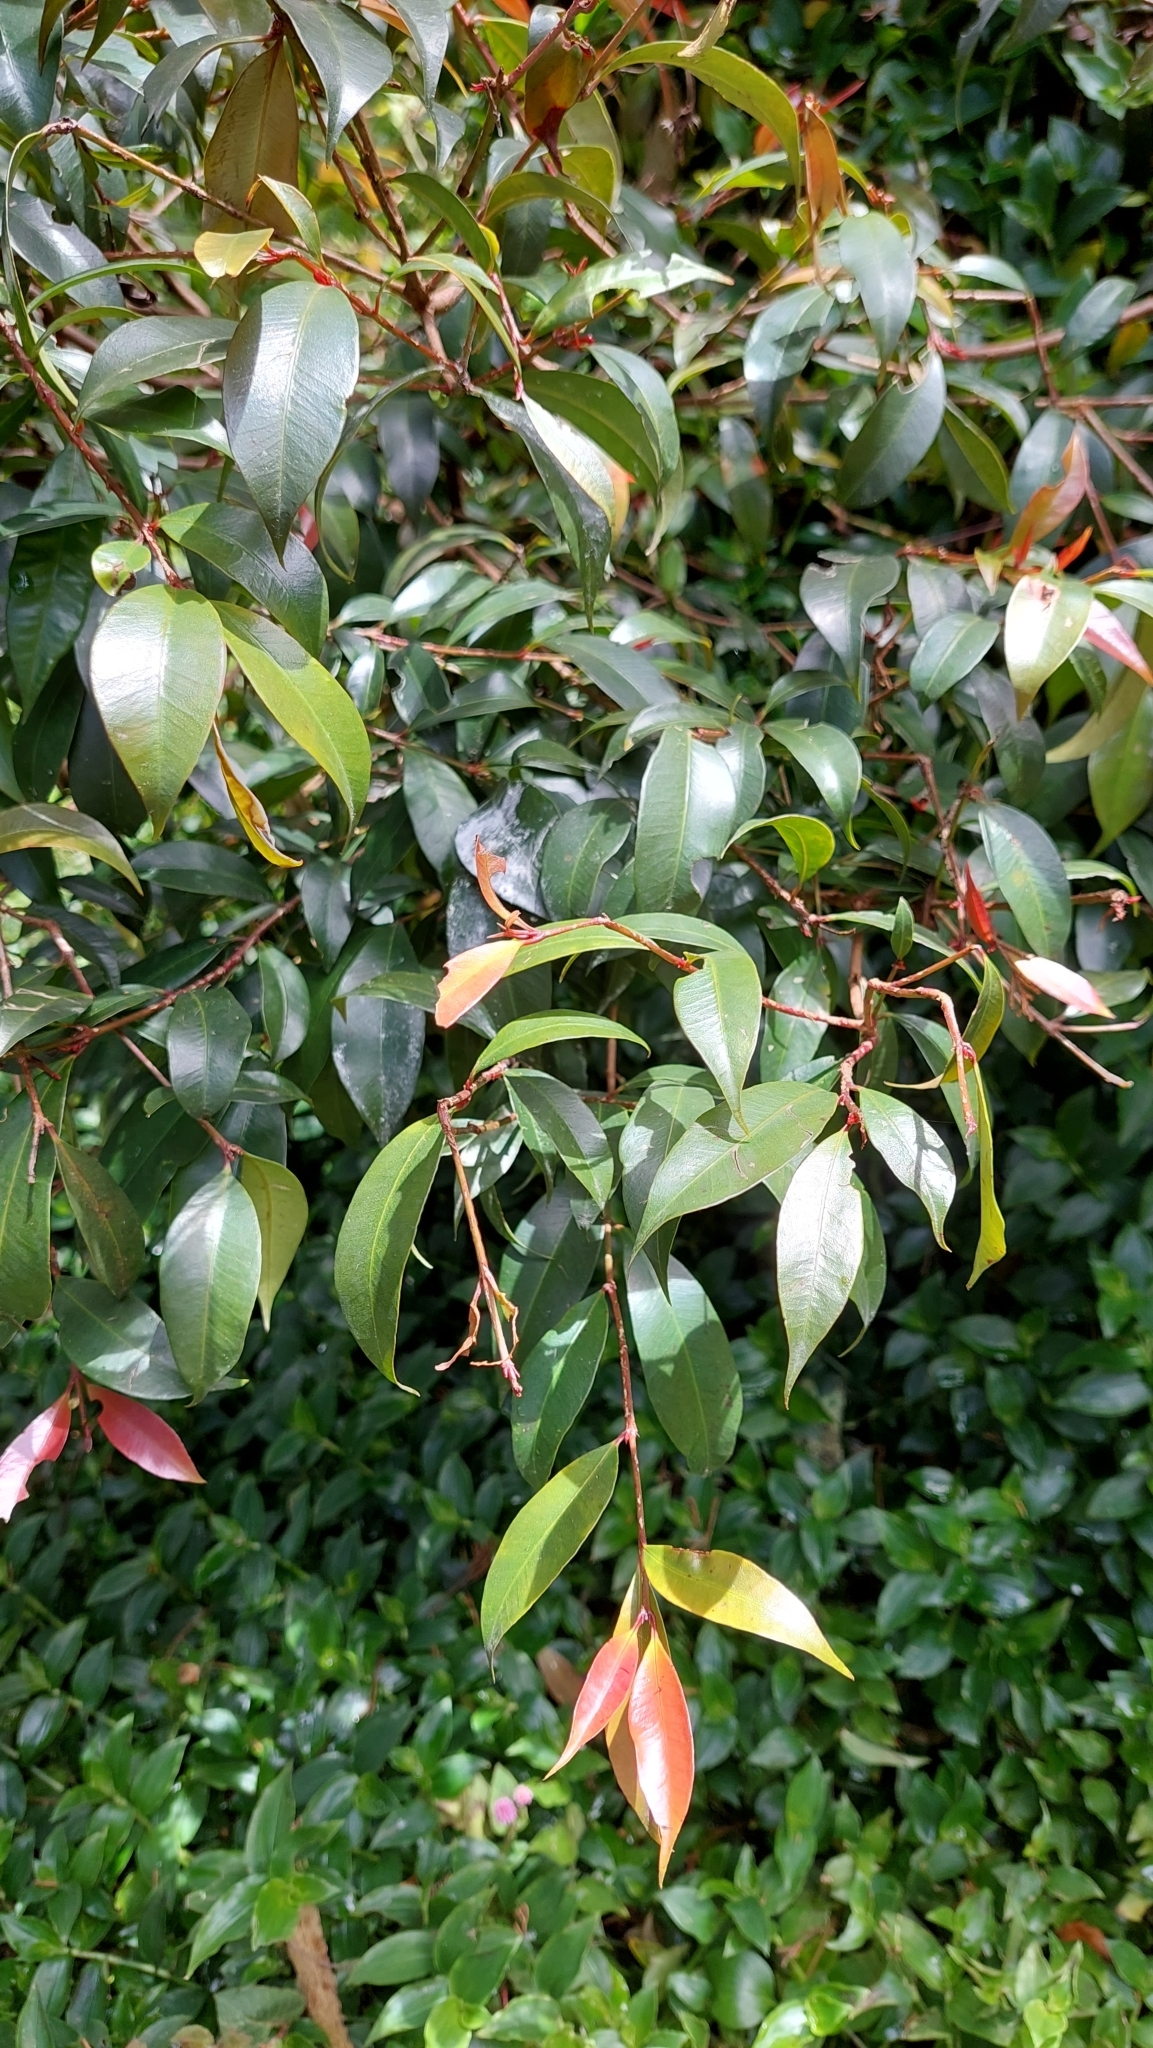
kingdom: Plantae
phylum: Tracheophyta
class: Magnoliopsida
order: Myrtales
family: Myrtaceae
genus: Syzygium
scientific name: Syzygium paniculatum
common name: Magenta lilly-pilly
